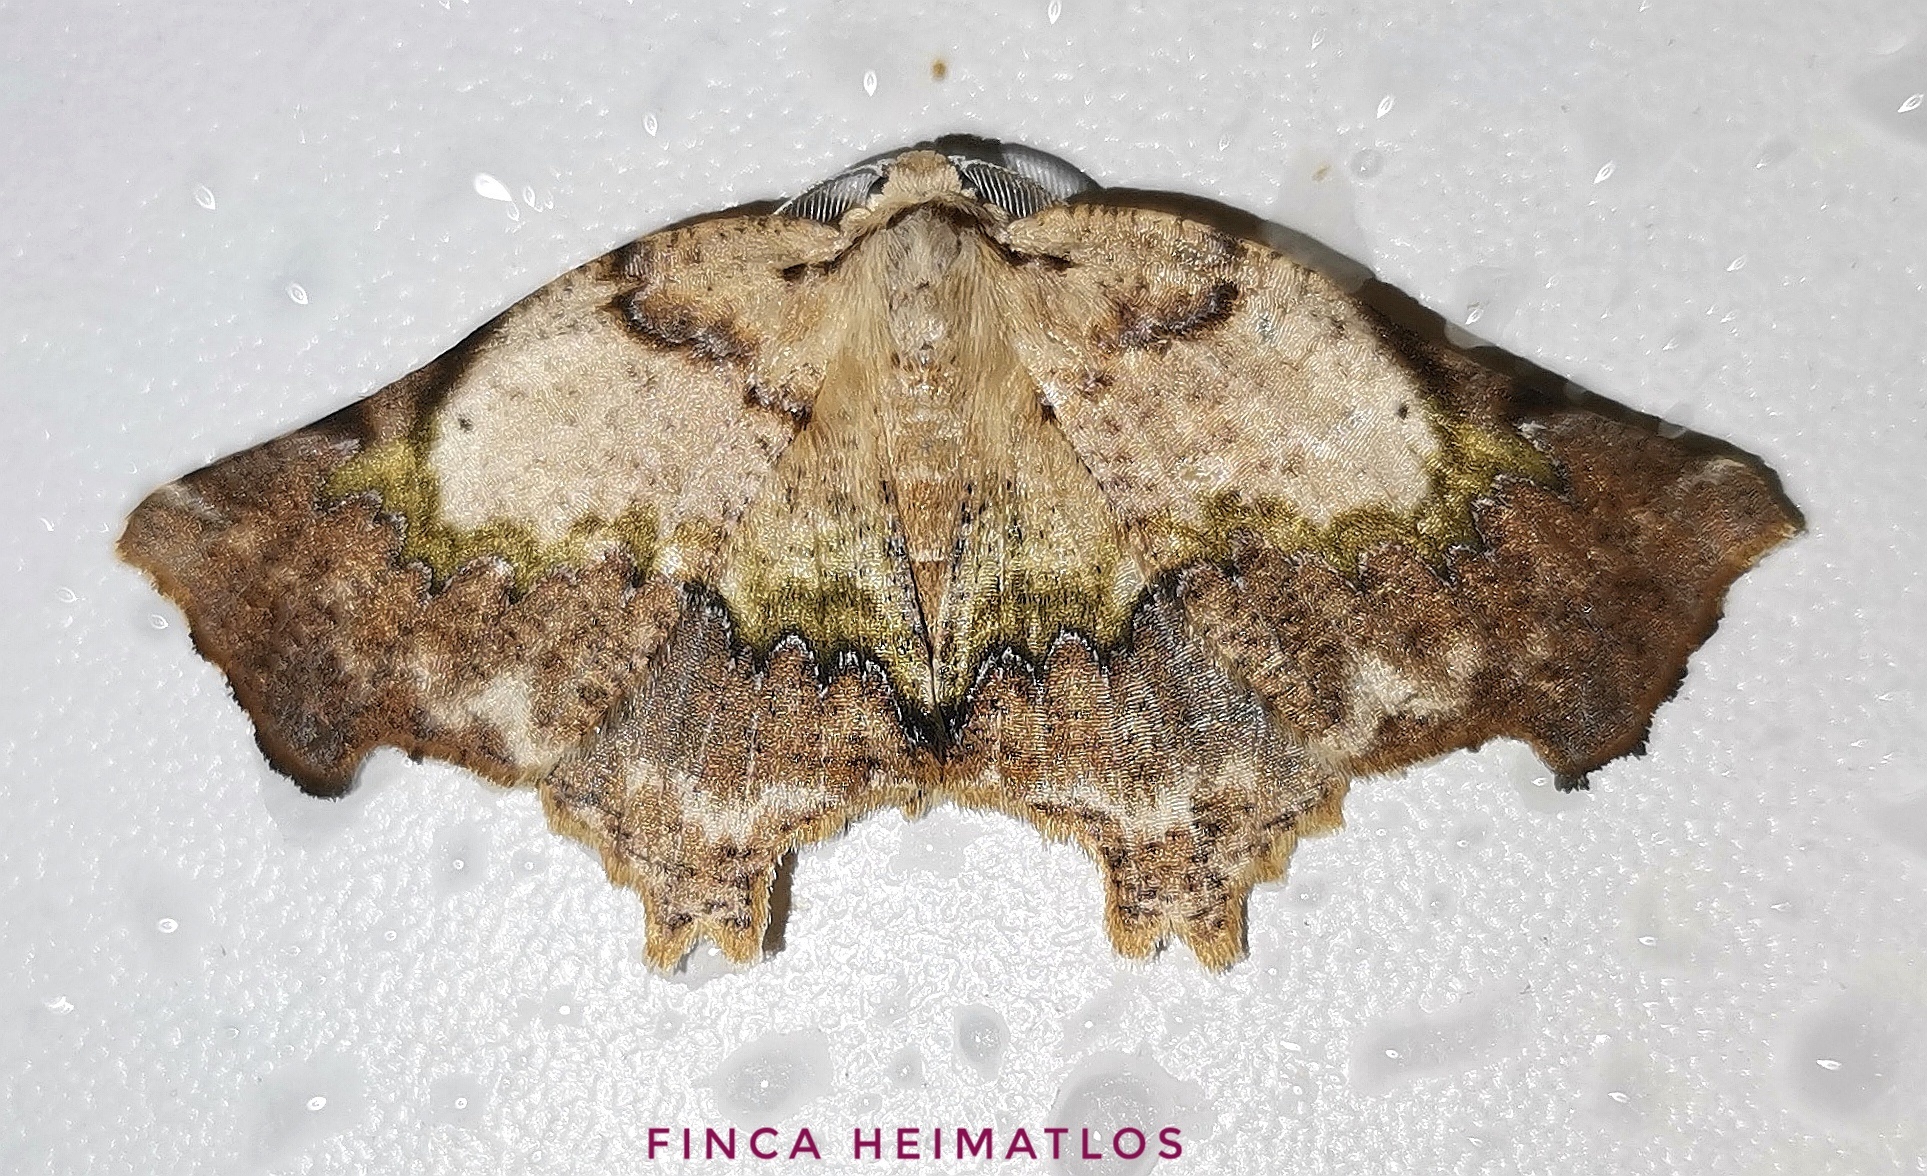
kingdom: Animalia
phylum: Arthropoda
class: Insecta
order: Lepidoptera
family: Geometridae
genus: Tmetomorpha
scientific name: Tmetomorpha bitias
